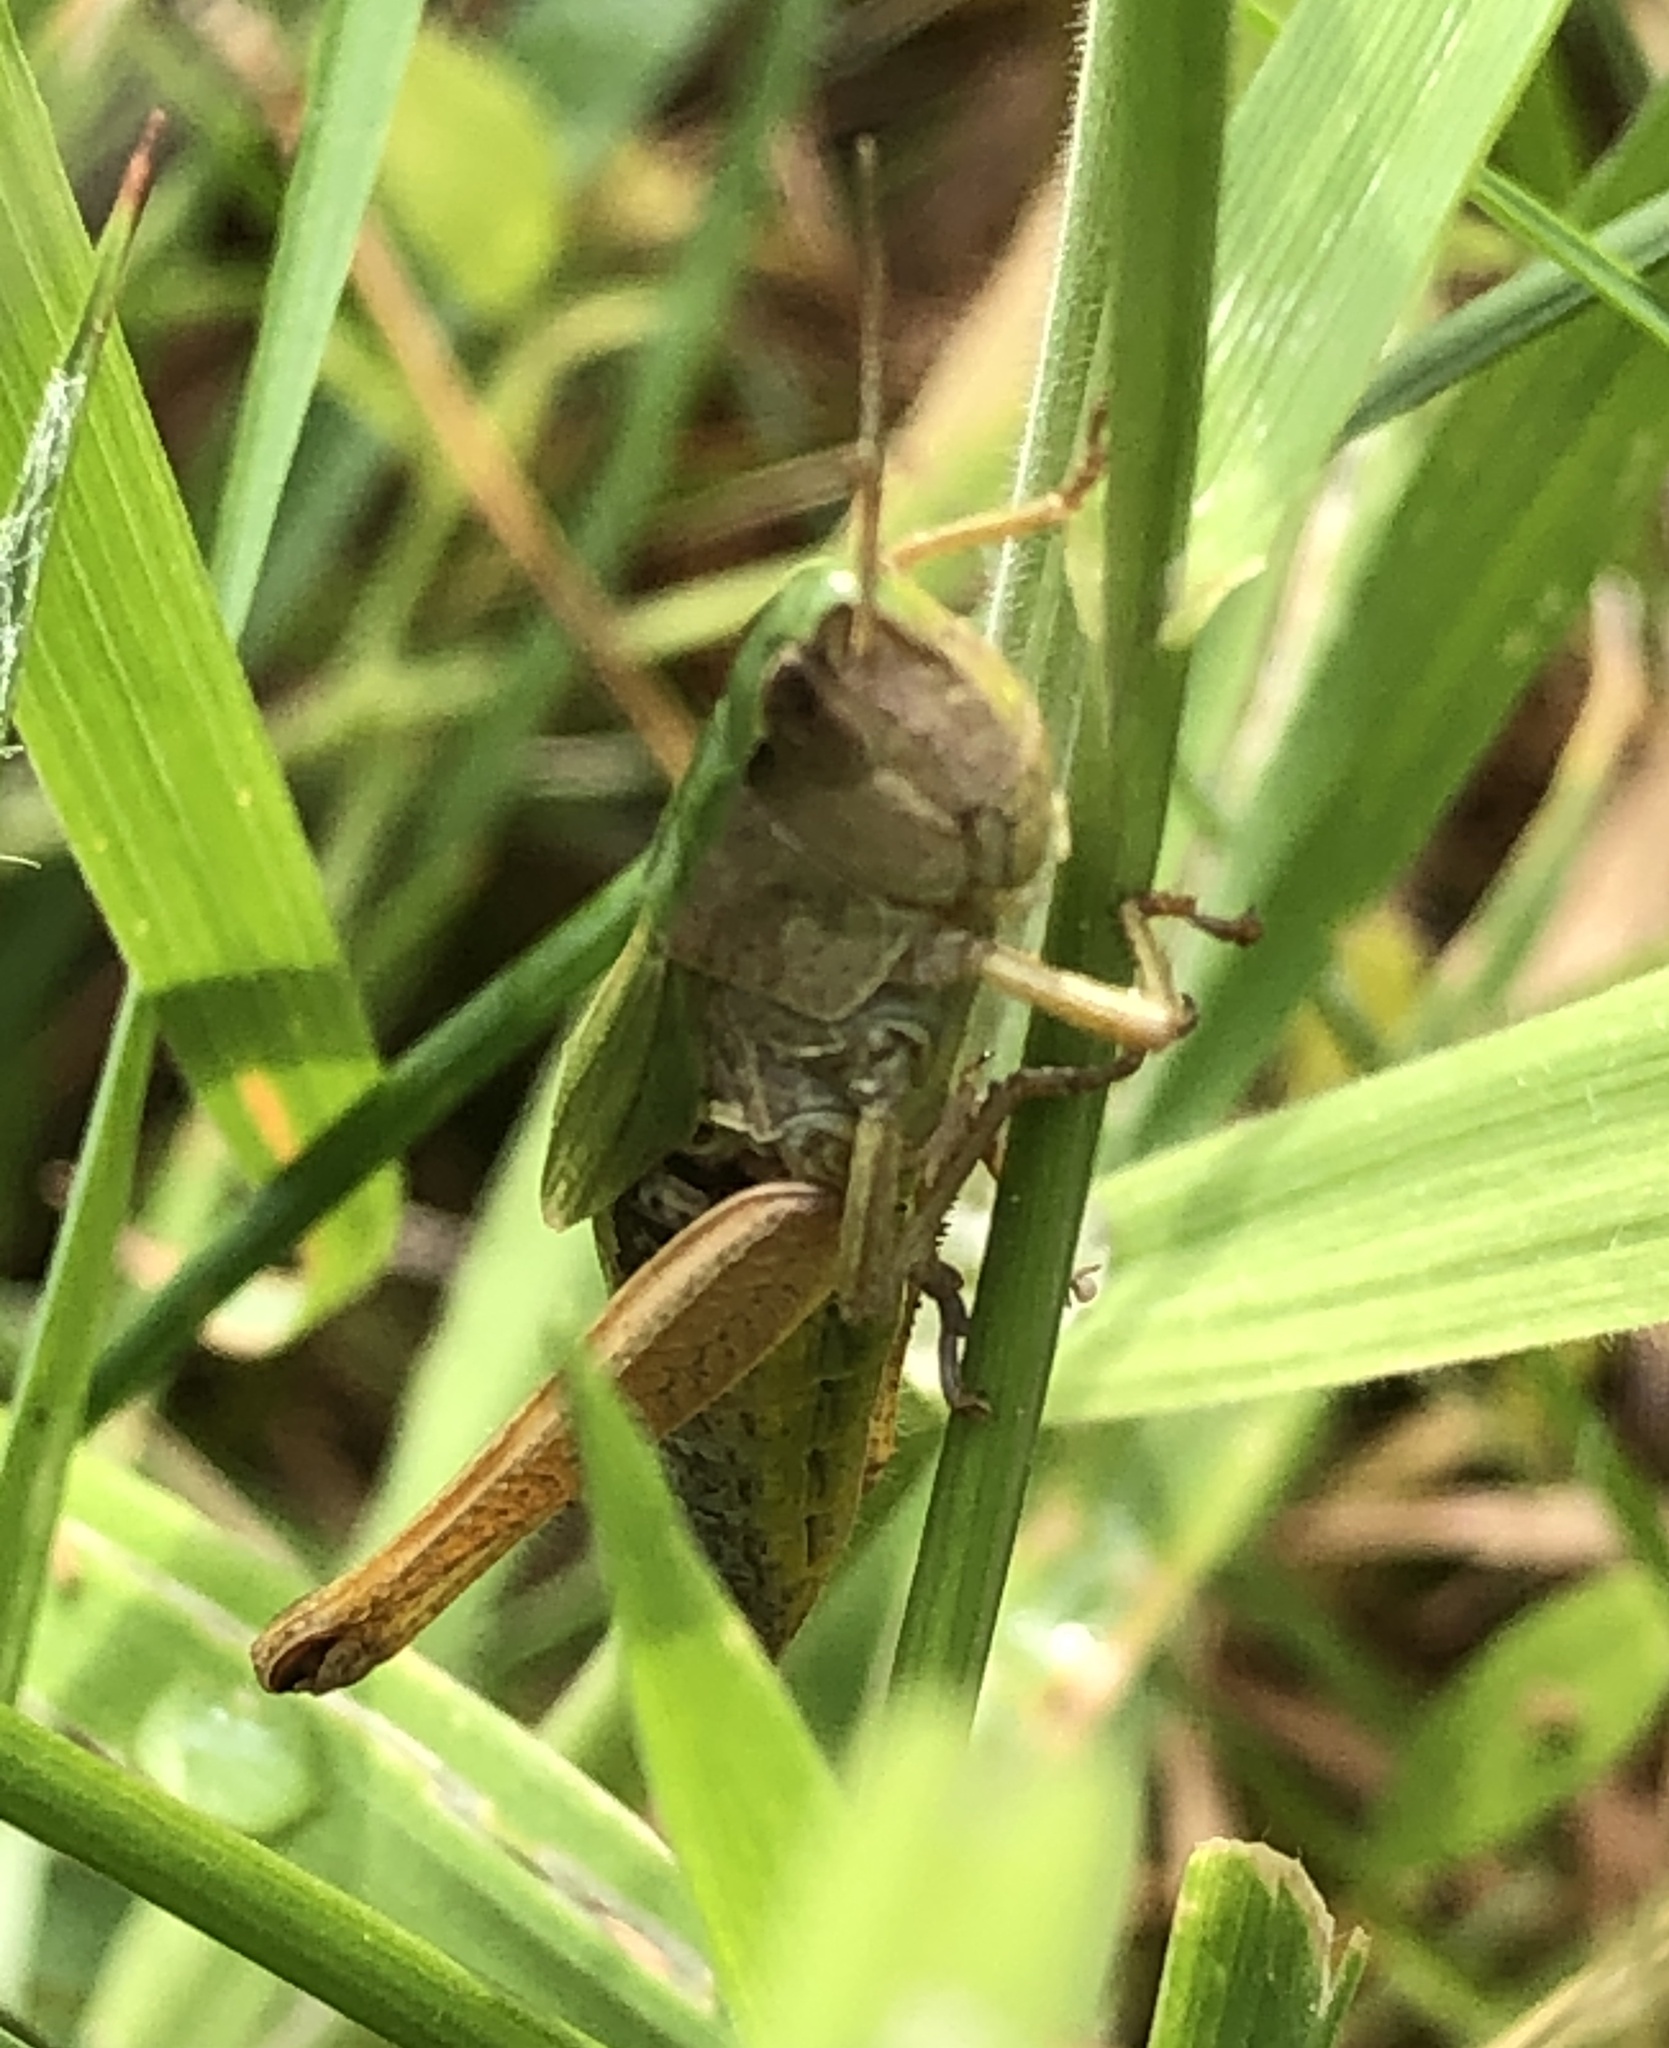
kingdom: Animalia
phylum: Arthropoda
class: Insecta
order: Orthoptera
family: Acrididae
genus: Pseudochorthippus
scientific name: Pseudochorthippus parallelus
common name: Meadow grasshopper
